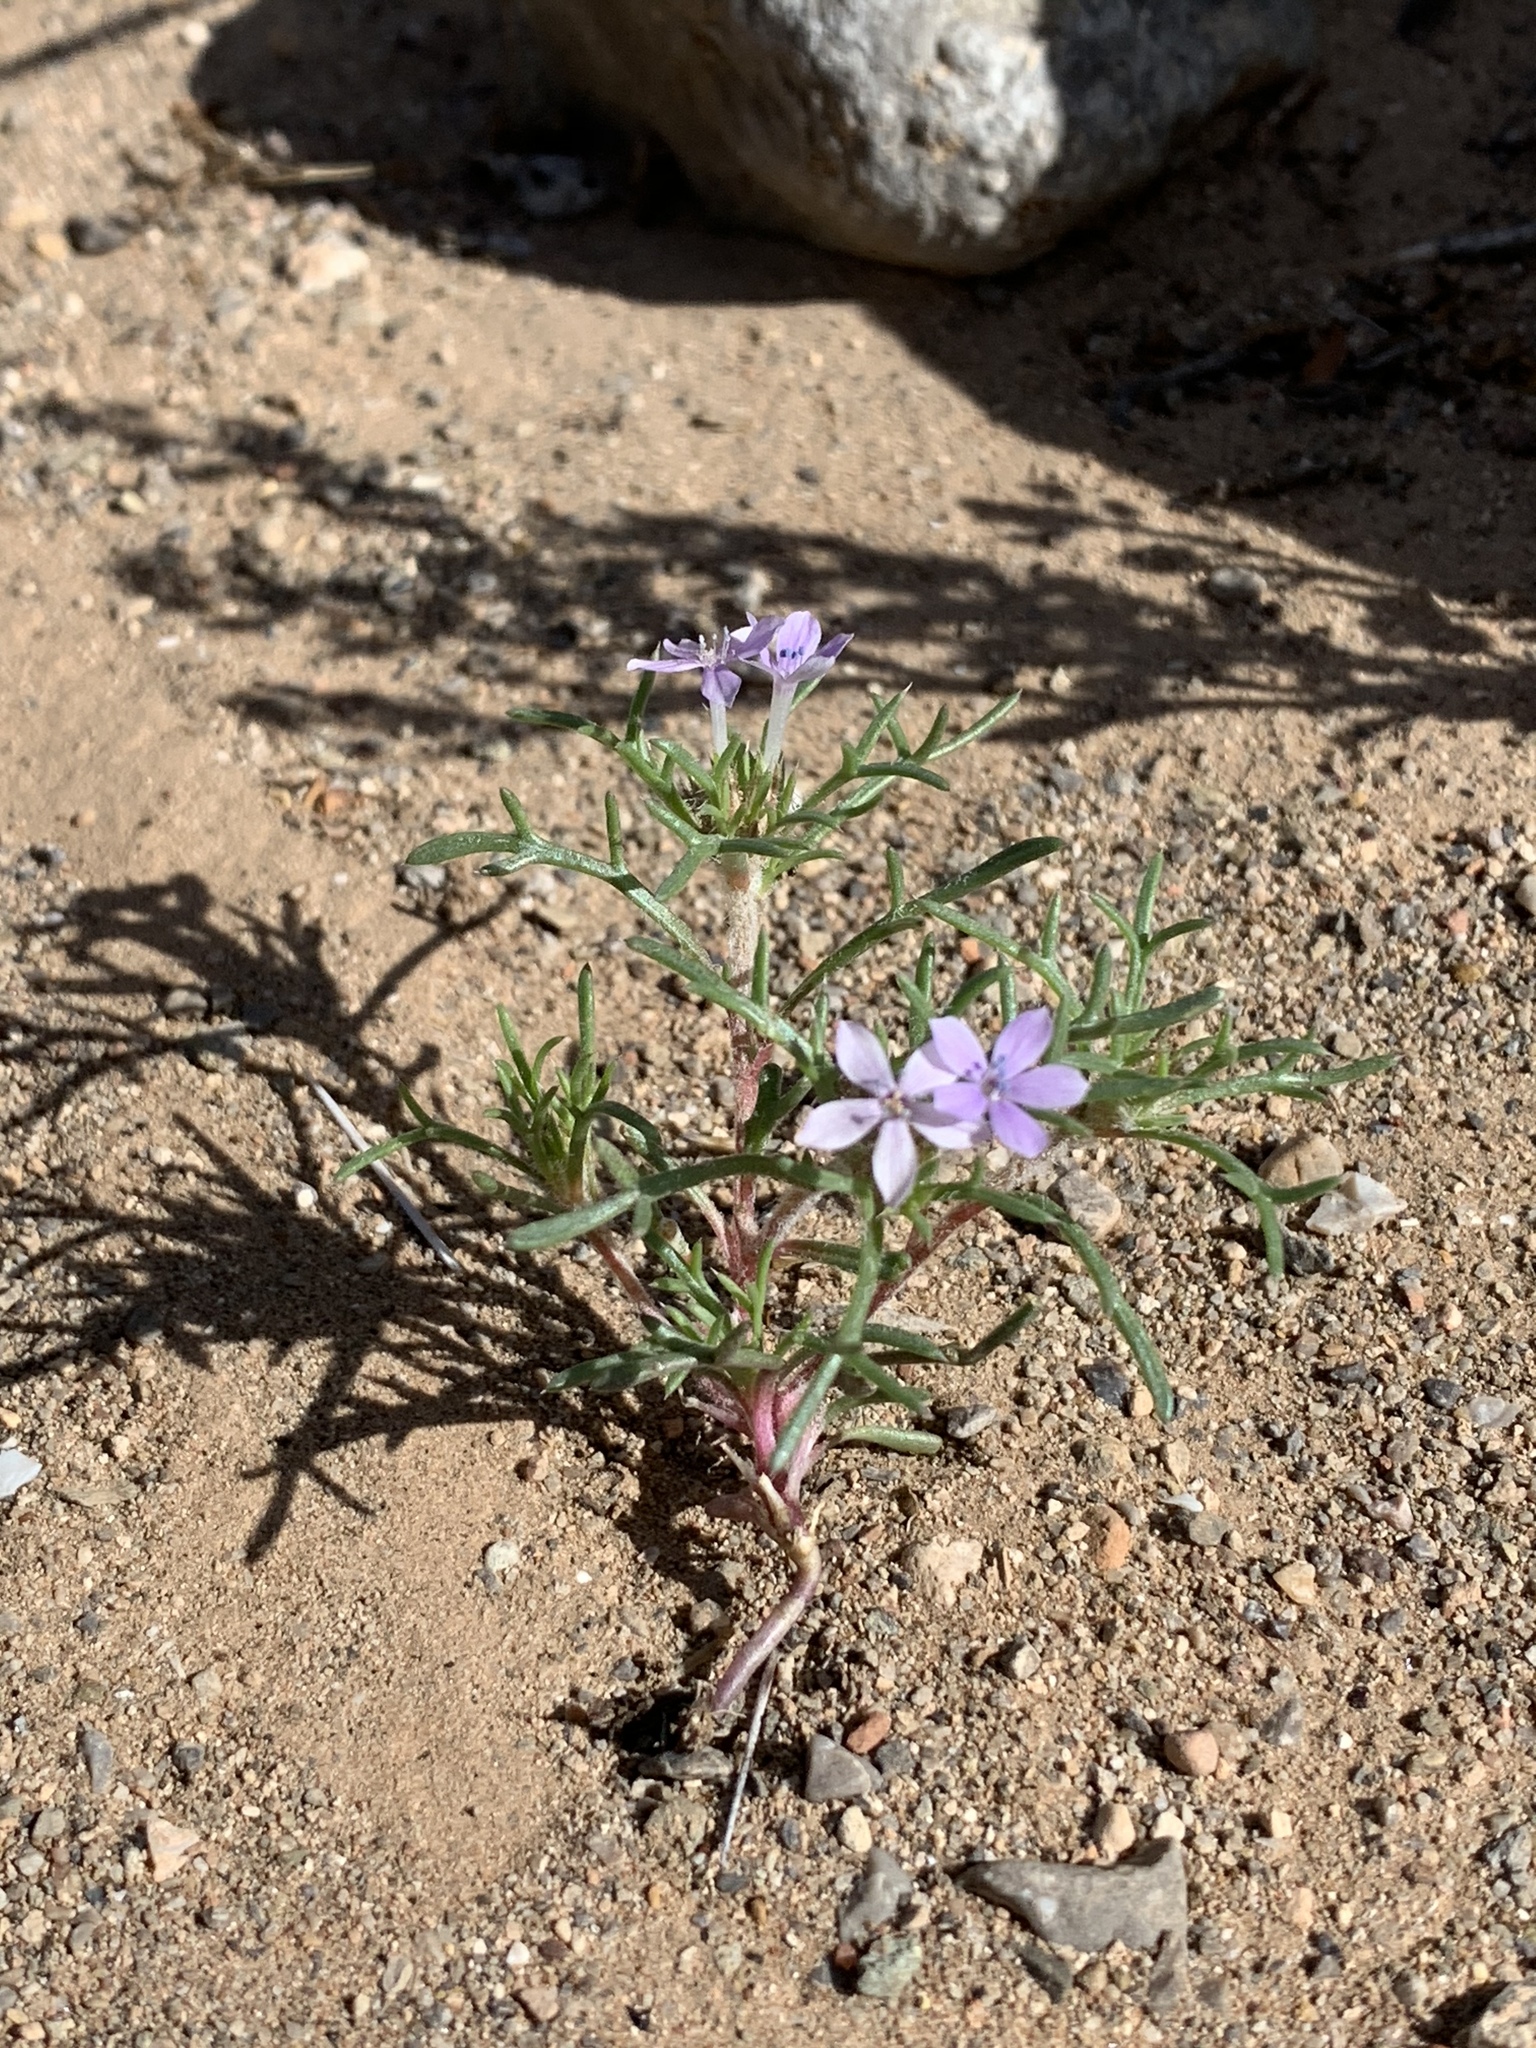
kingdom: Plantae
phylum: Tracheophyta
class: Magnoliopsida
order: Ericales
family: Polemoniaceae
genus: Ipomopsis
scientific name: Ipomopsis pumila
